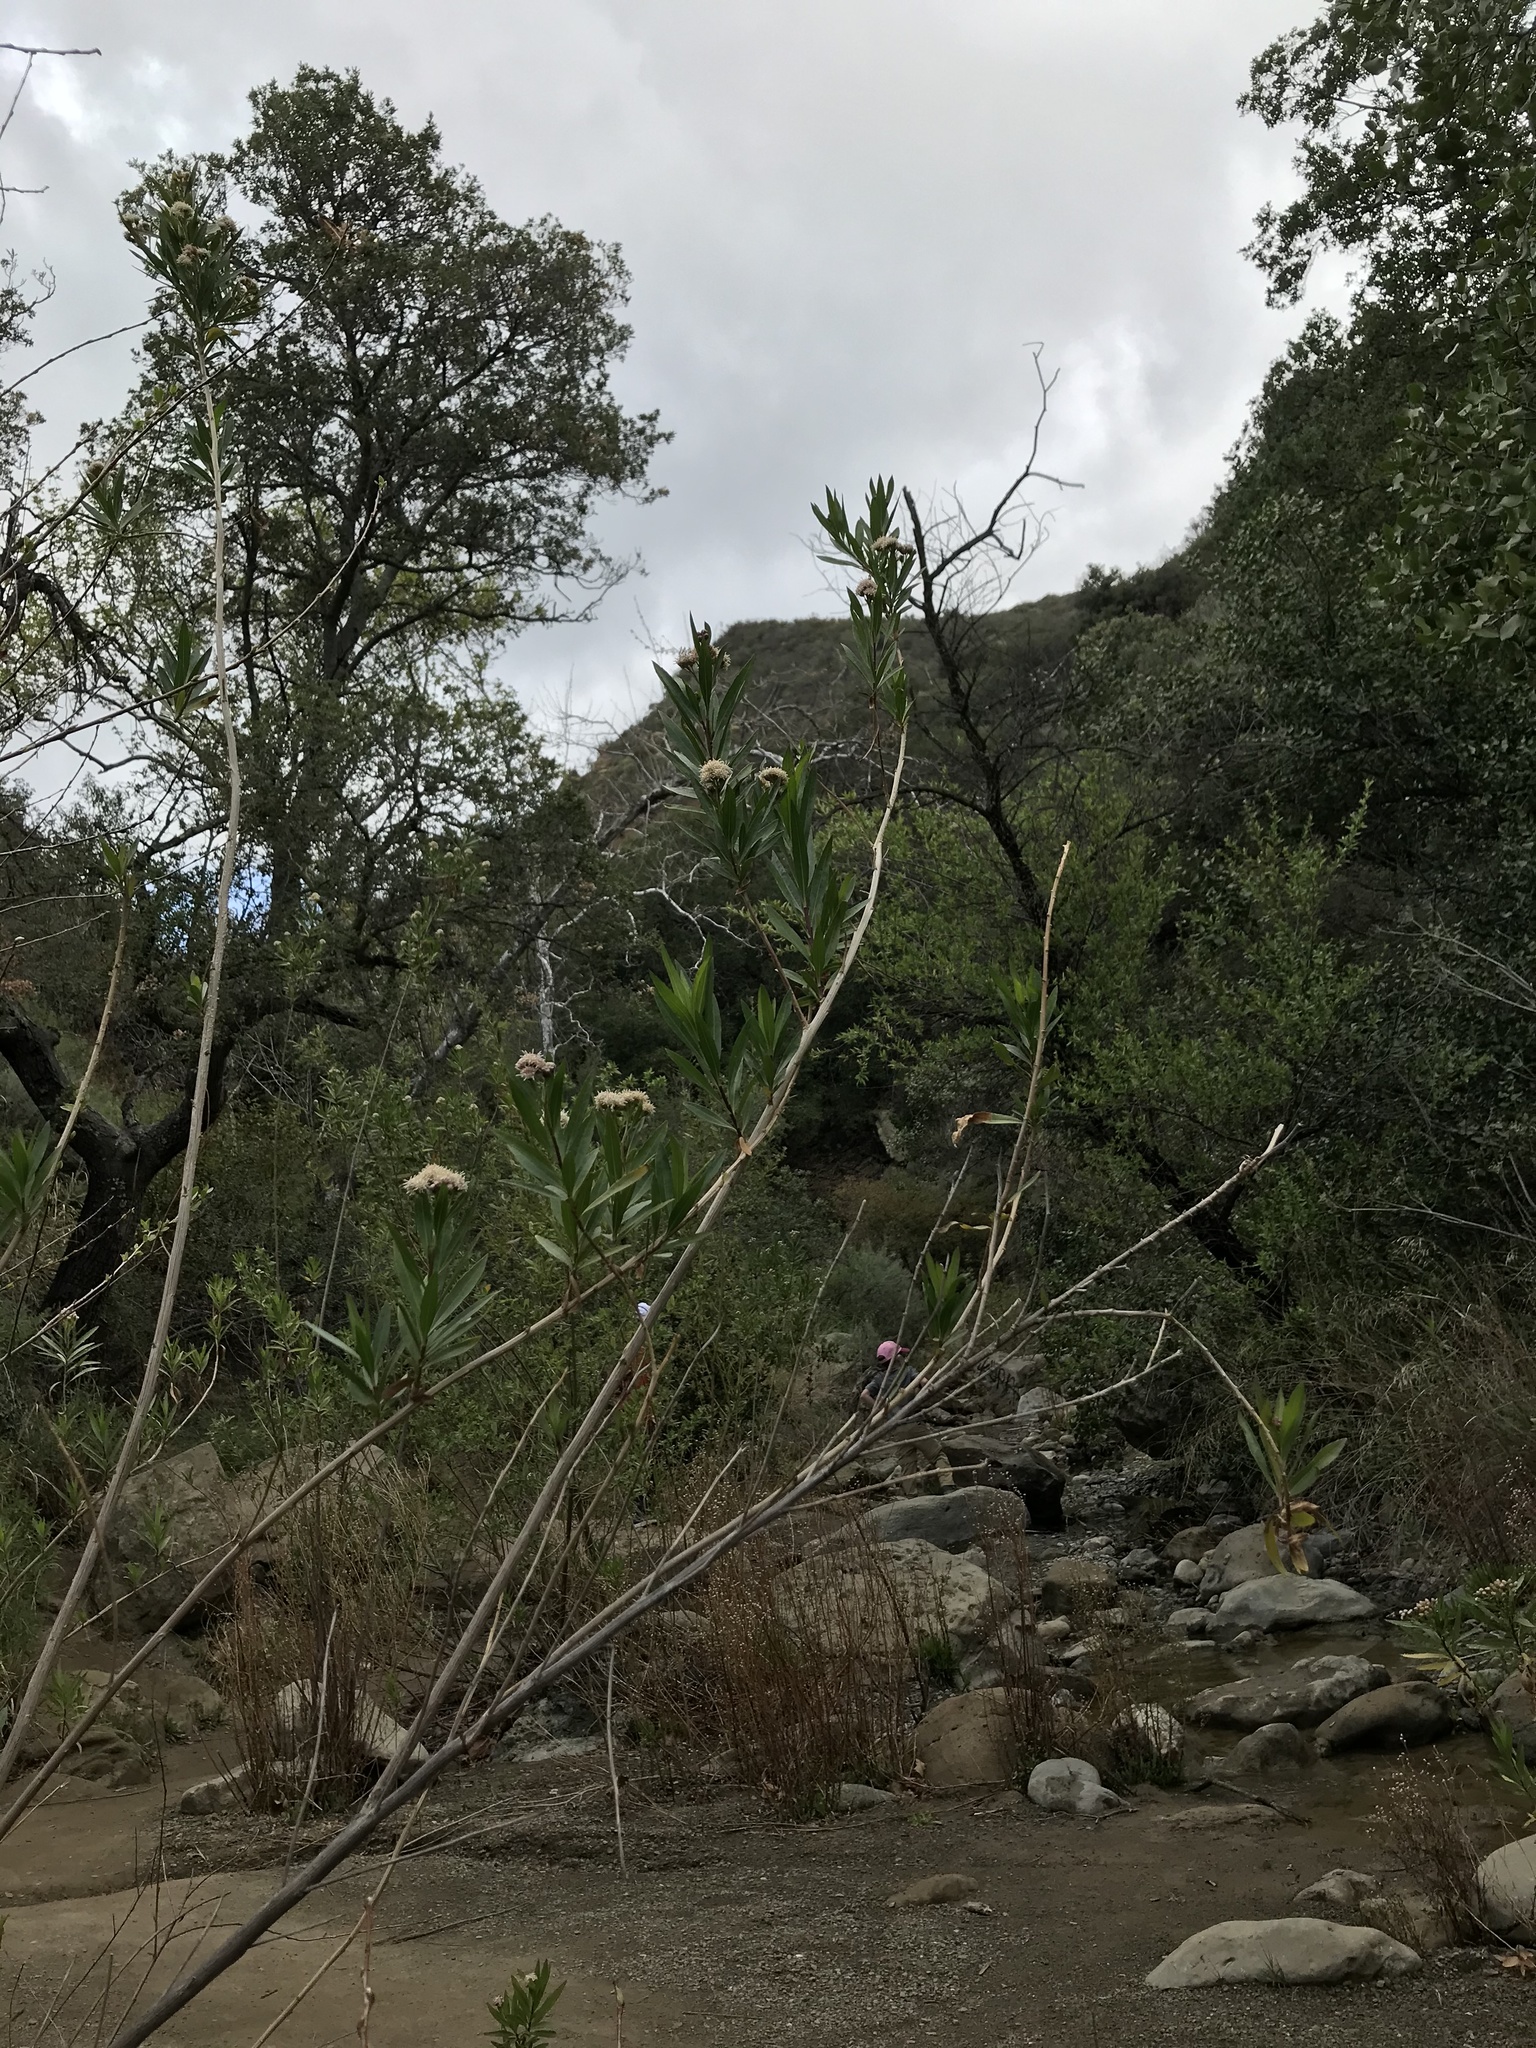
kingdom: Plantae
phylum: Tracheophyta
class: Magnoliopsida
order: Asterales
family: Asteraceae
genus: Baccharis
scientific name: Baccharis salicifolia
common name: Sticky baccharis
